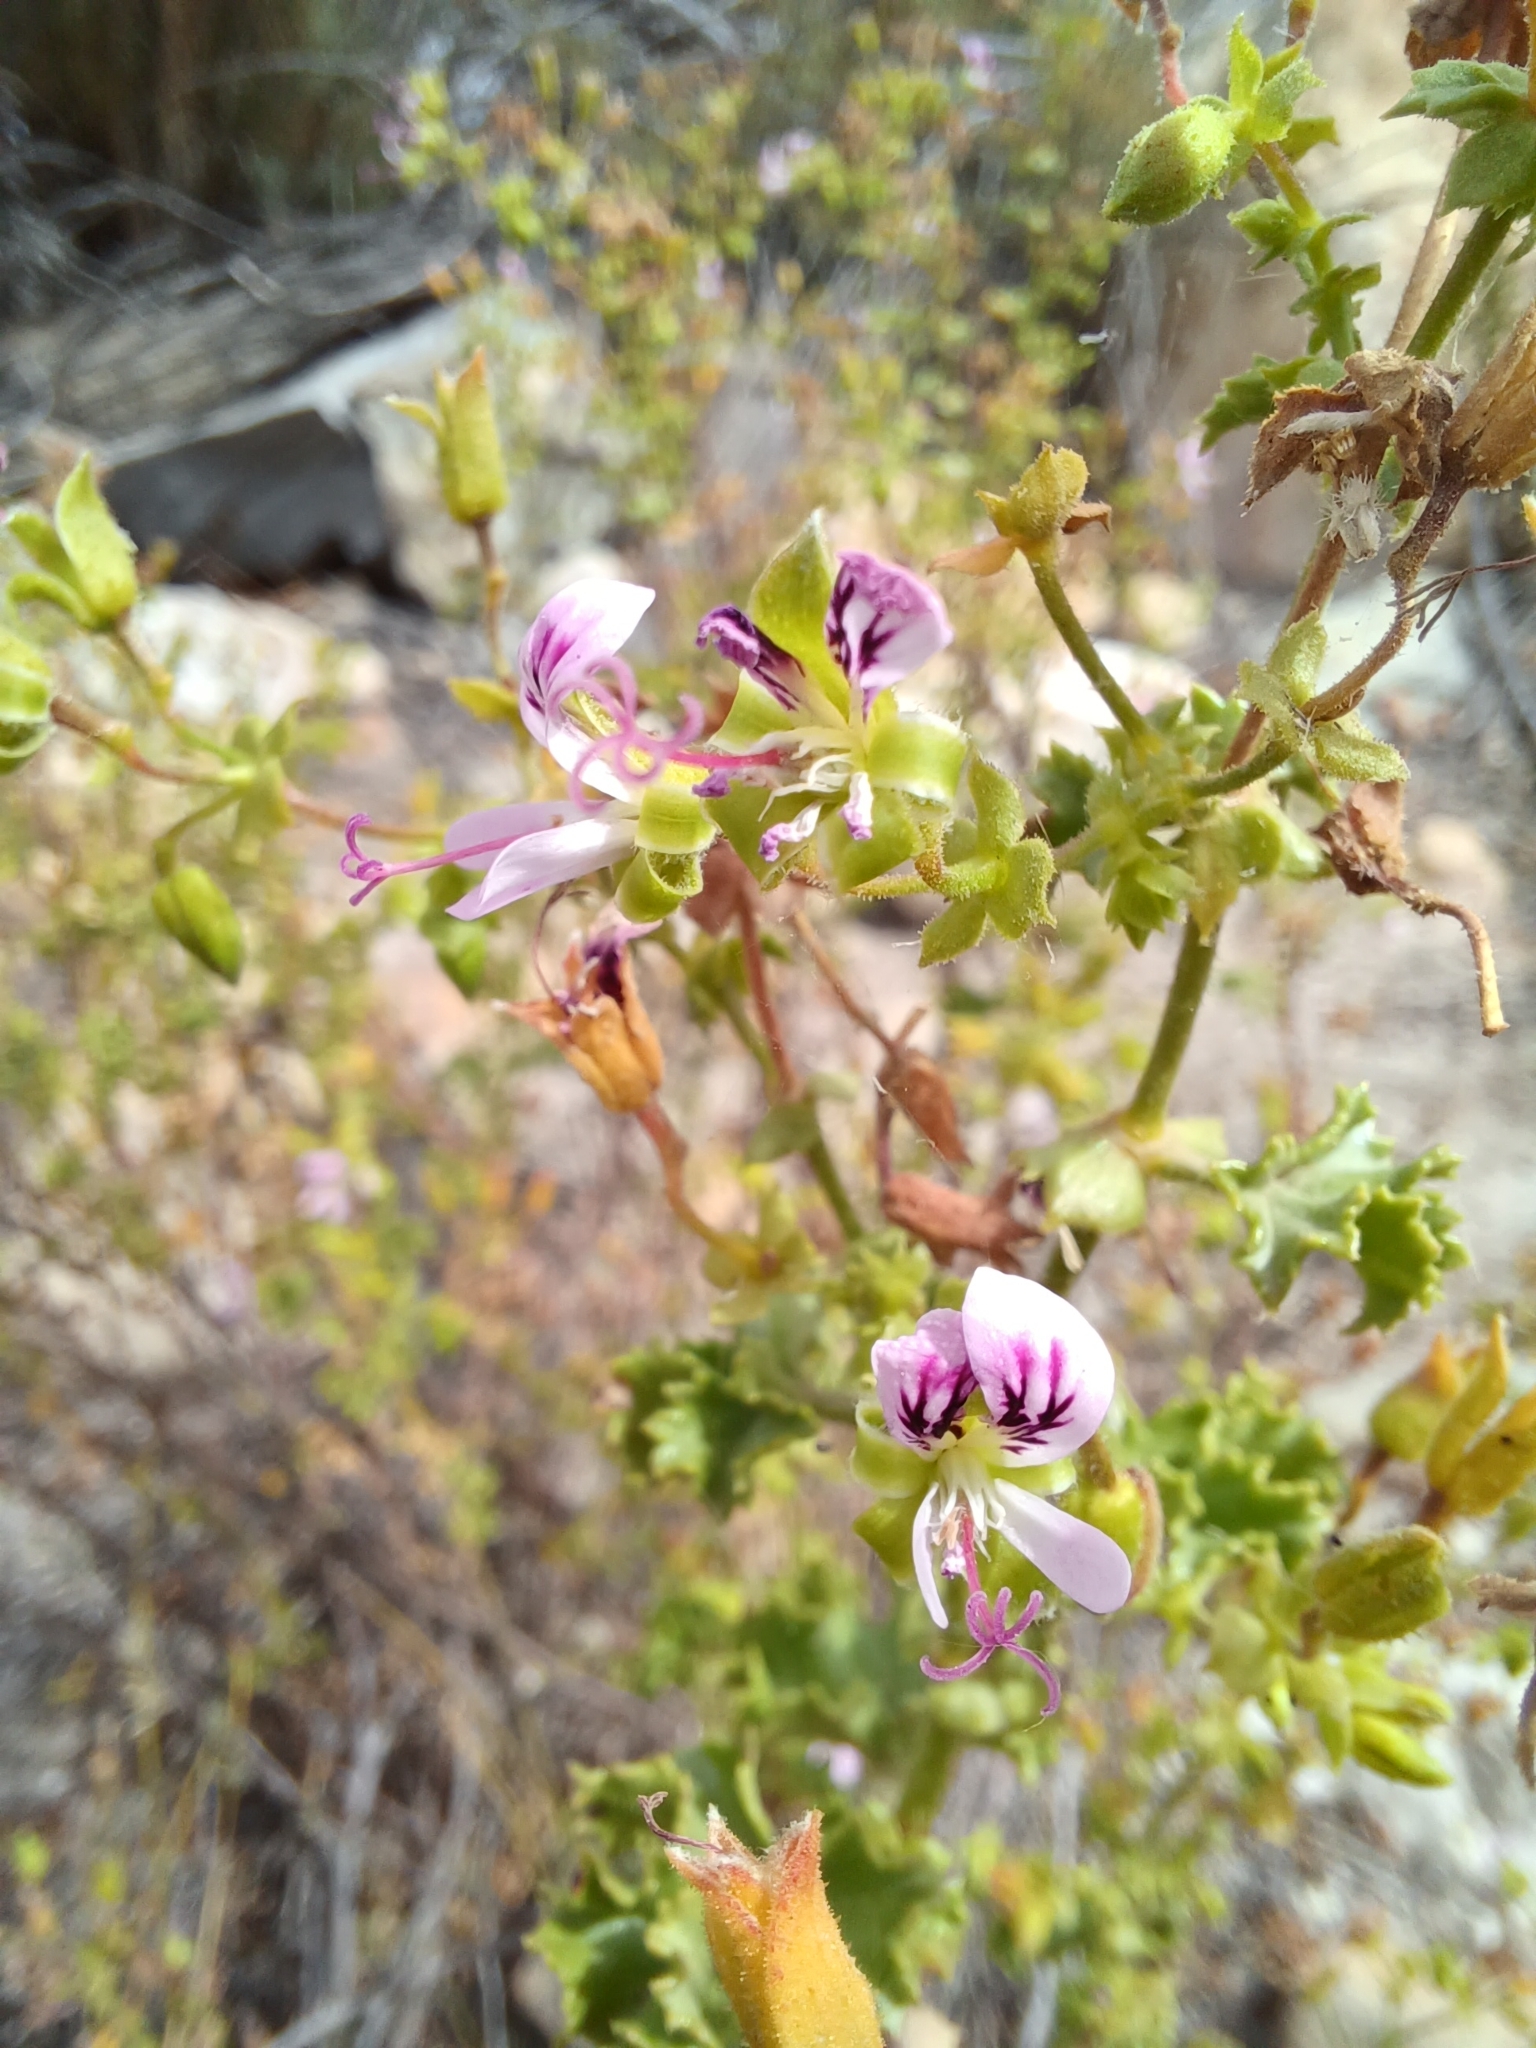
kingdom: Plantae
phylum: Tracheophyta
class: Magnoliopsida
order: Geraniales
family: Geraniaceae
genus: Pelargonium
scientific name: Pelargonium englerianum
